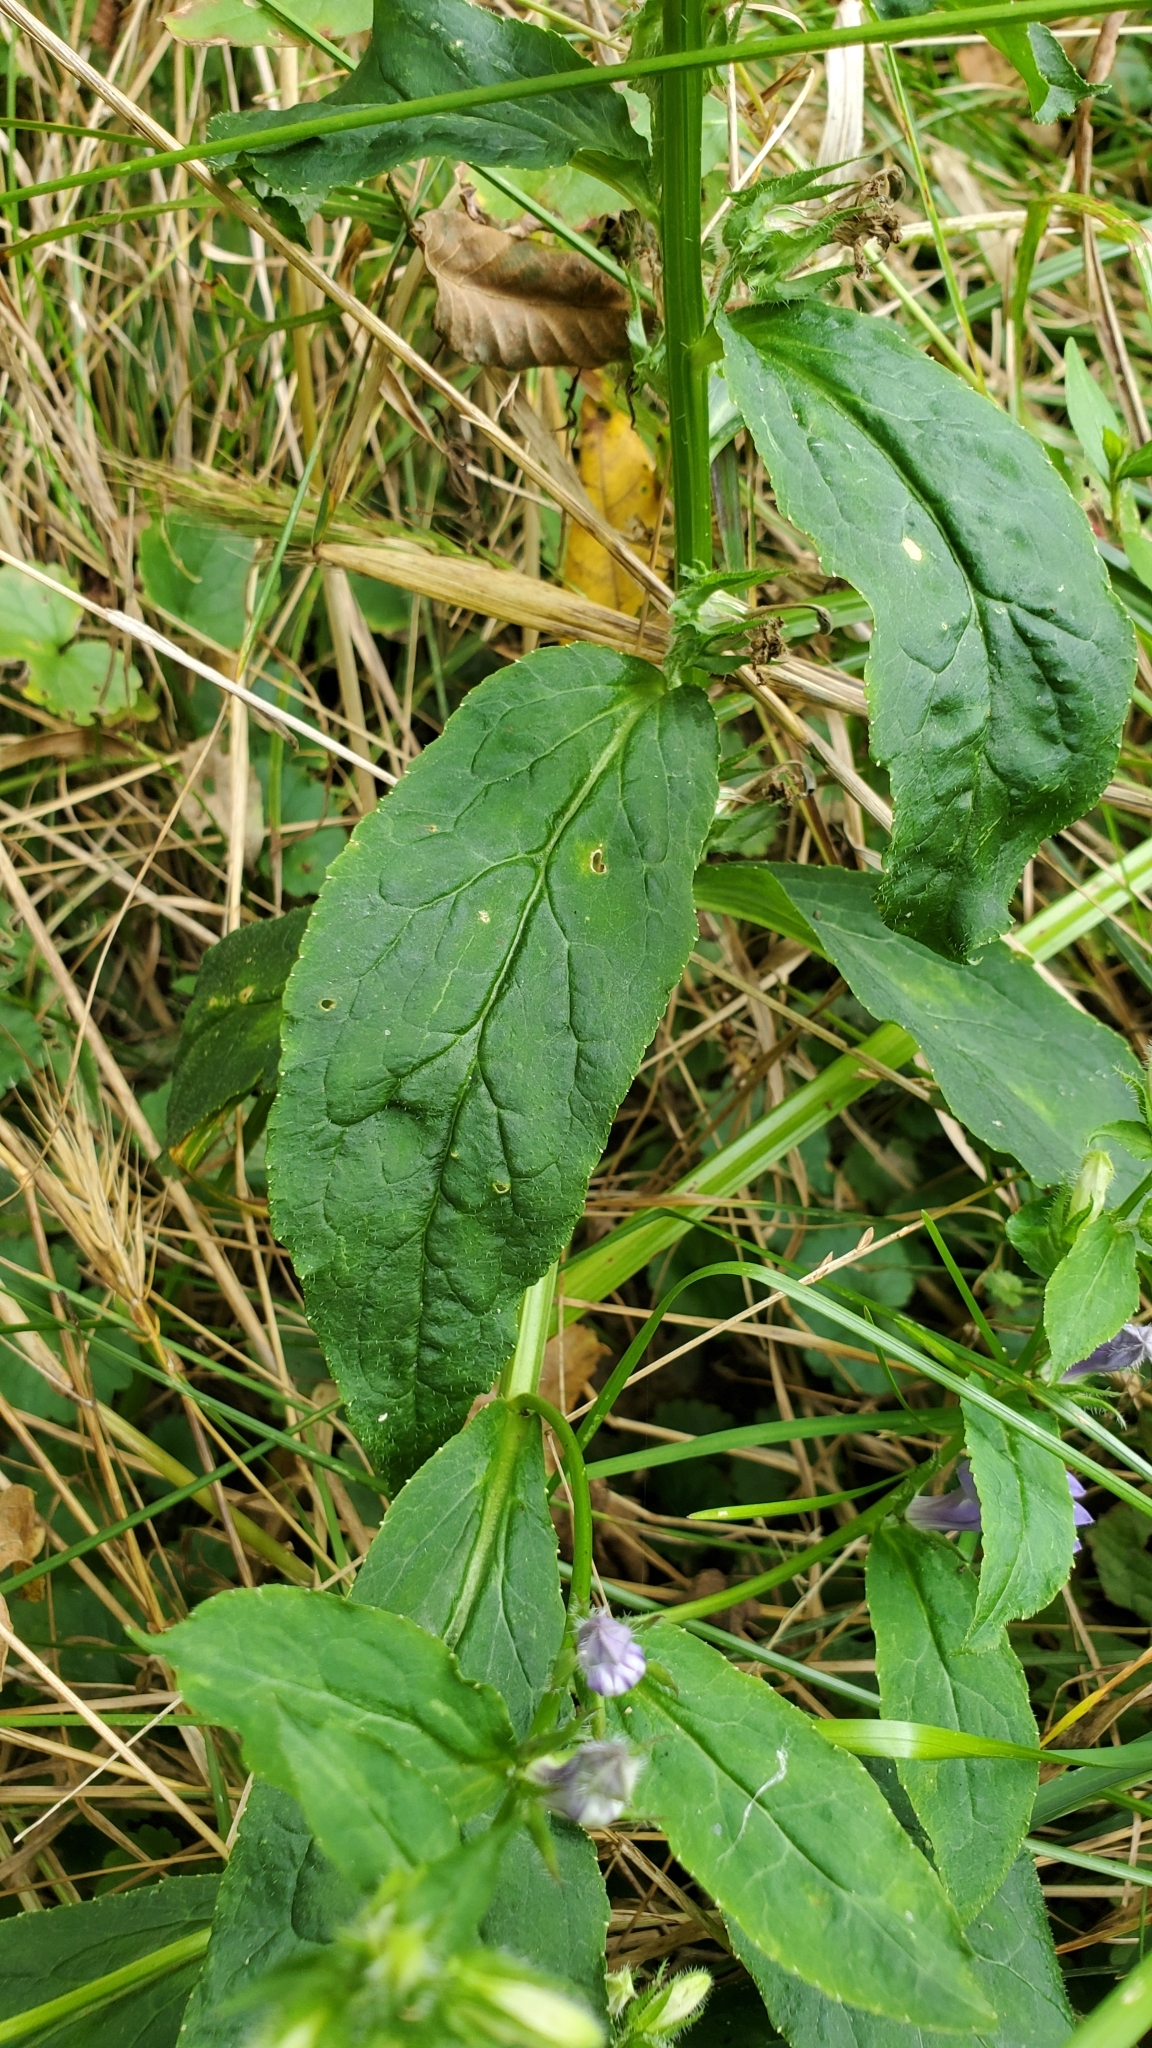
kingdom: Plantae
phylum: Tracheophyta
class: Magnoliopsida
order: Asterales
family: Campanulaceae
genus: Lobelia
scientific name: Lobelia siphilitica
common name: Great lobelia
